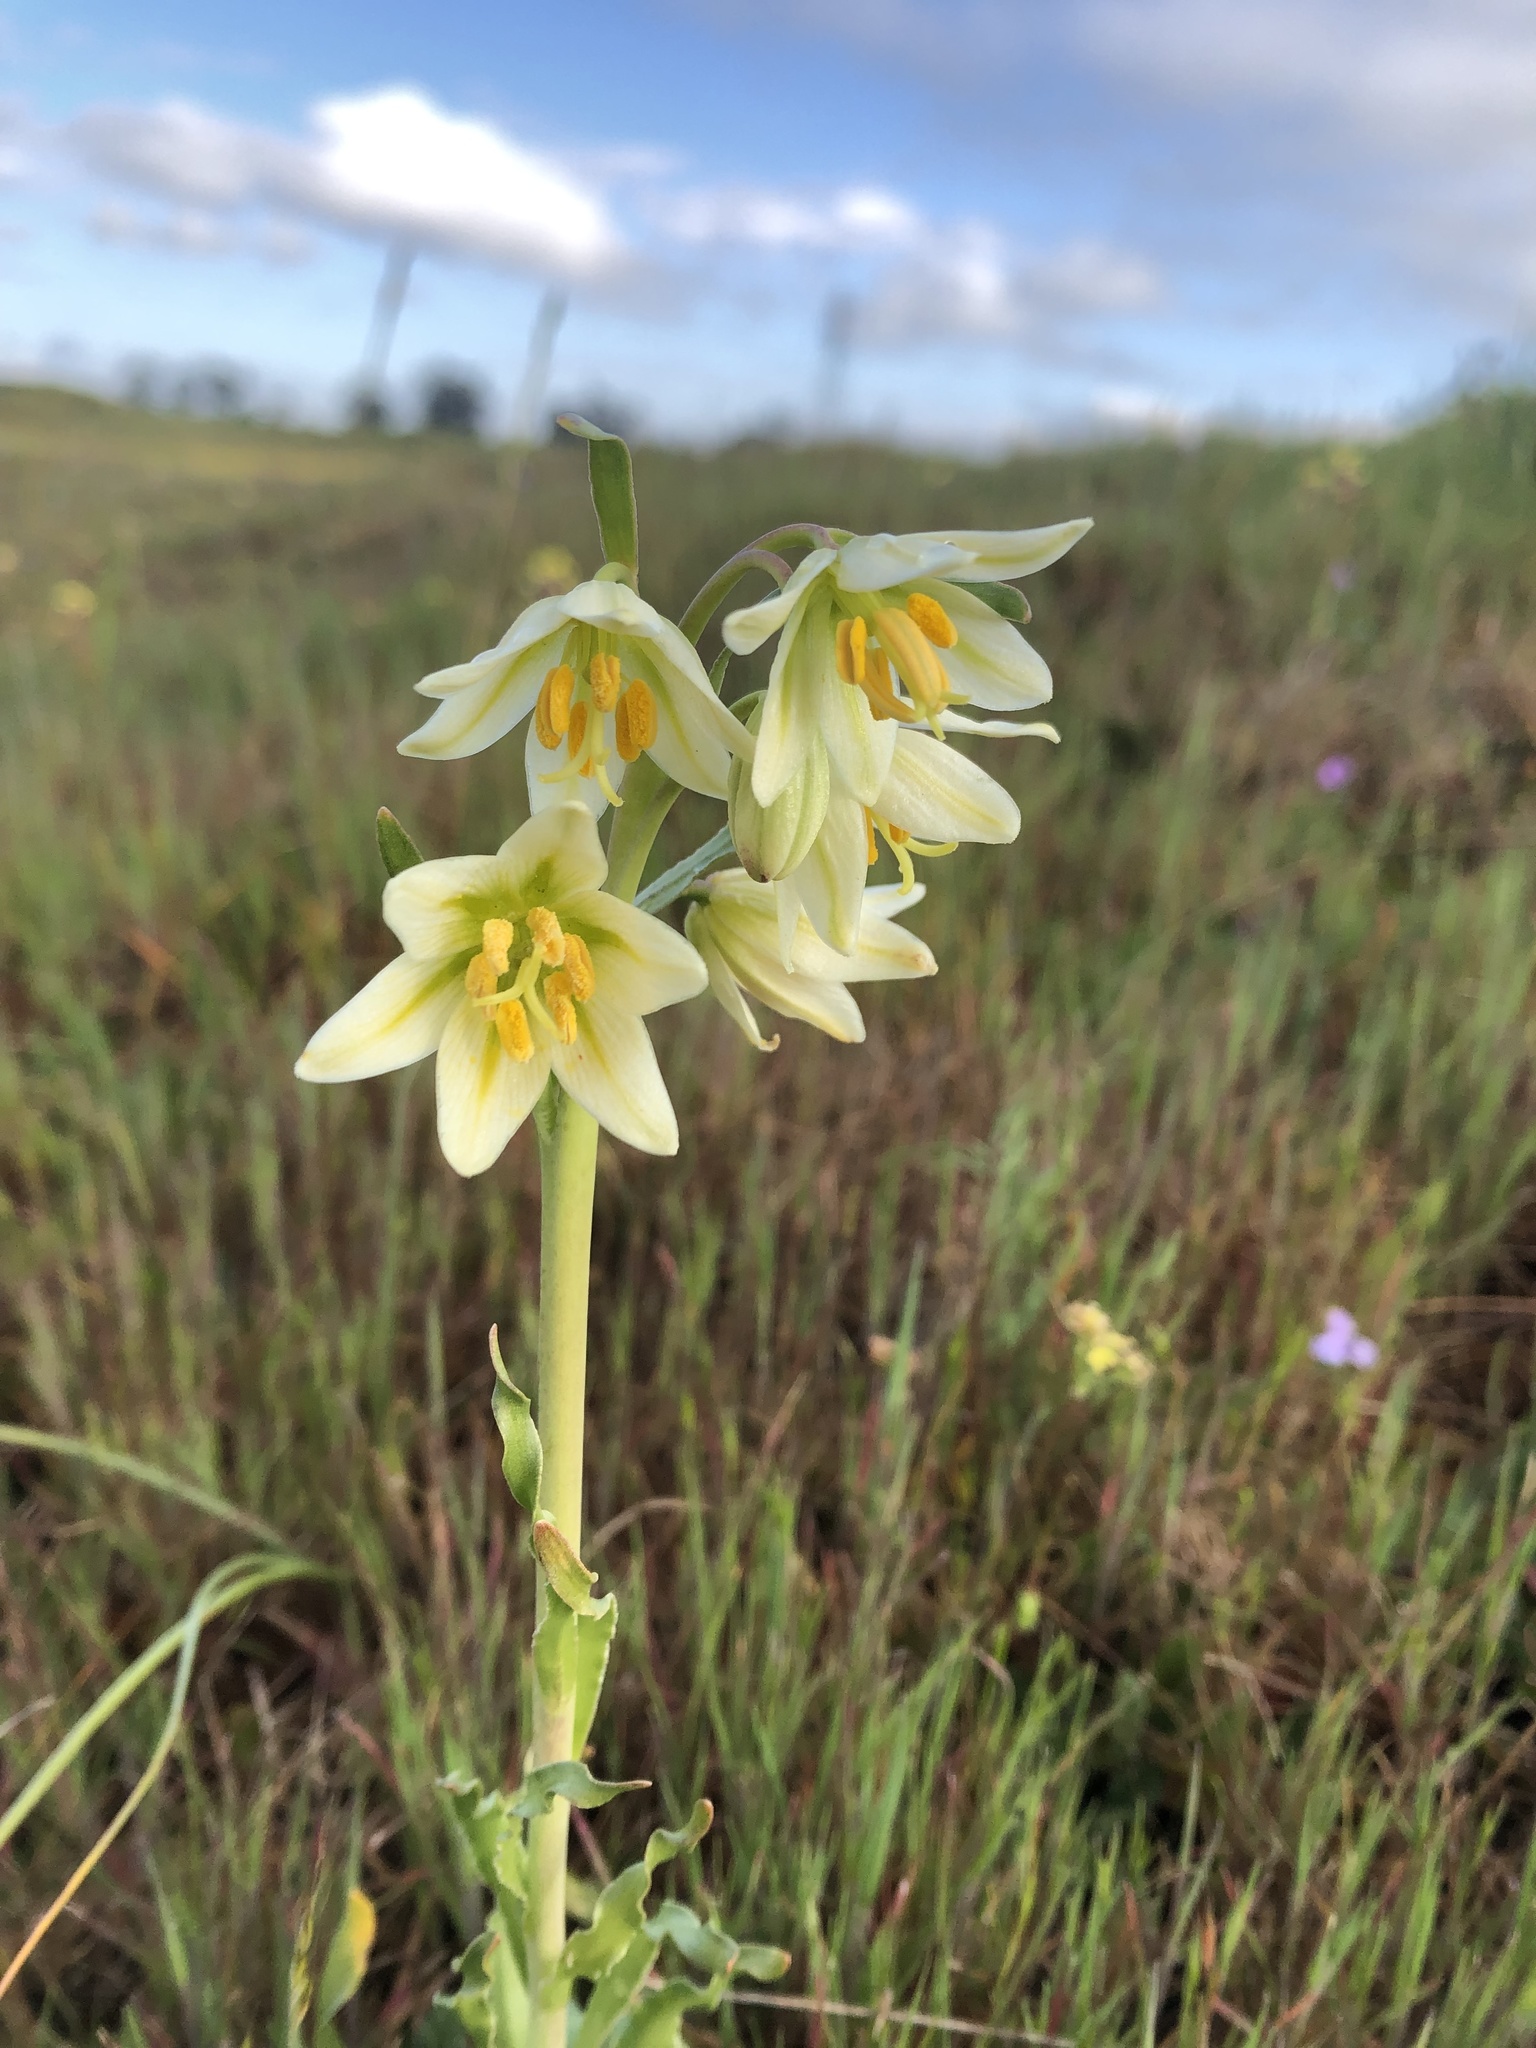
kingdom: Plantae
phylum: Tracheophyta
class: Liliopsida
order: Liliales
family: Liliaceae
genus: Fritillaria
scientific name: Fritillaria liliacea
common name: Fragrant fritillary
